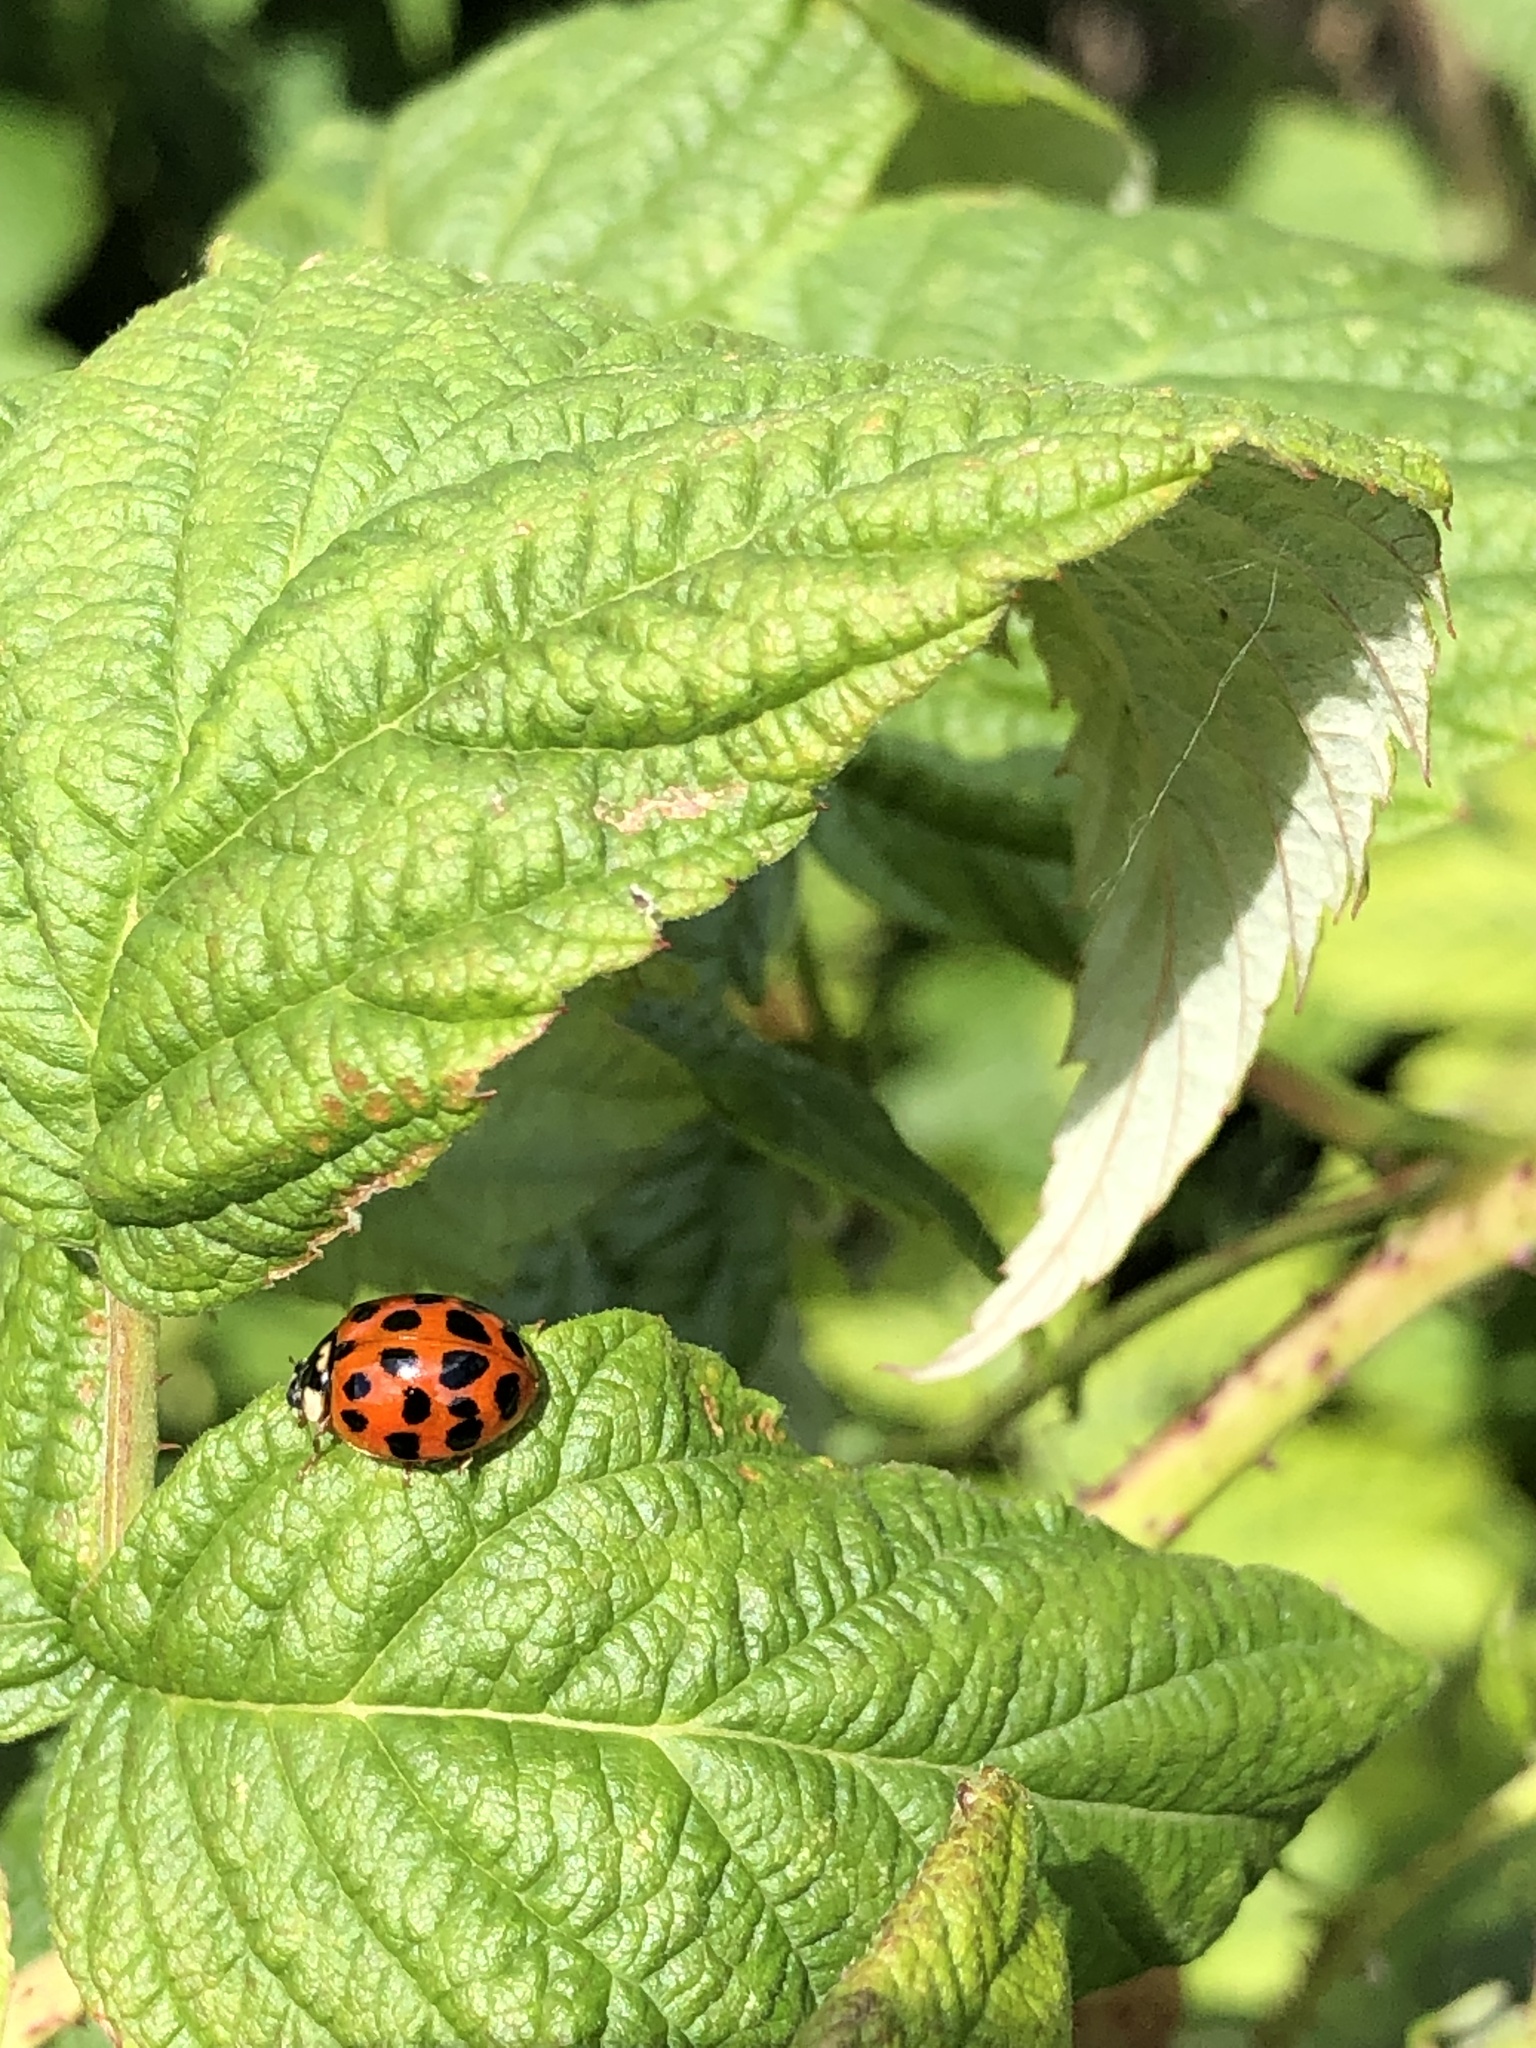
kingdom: Animalia
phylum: Arthropoda
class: Insecta
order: Coleoptera
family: Coccinellidae
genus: Harmonia
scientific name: Harmonia axyridis
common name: Harlequin ladybird
